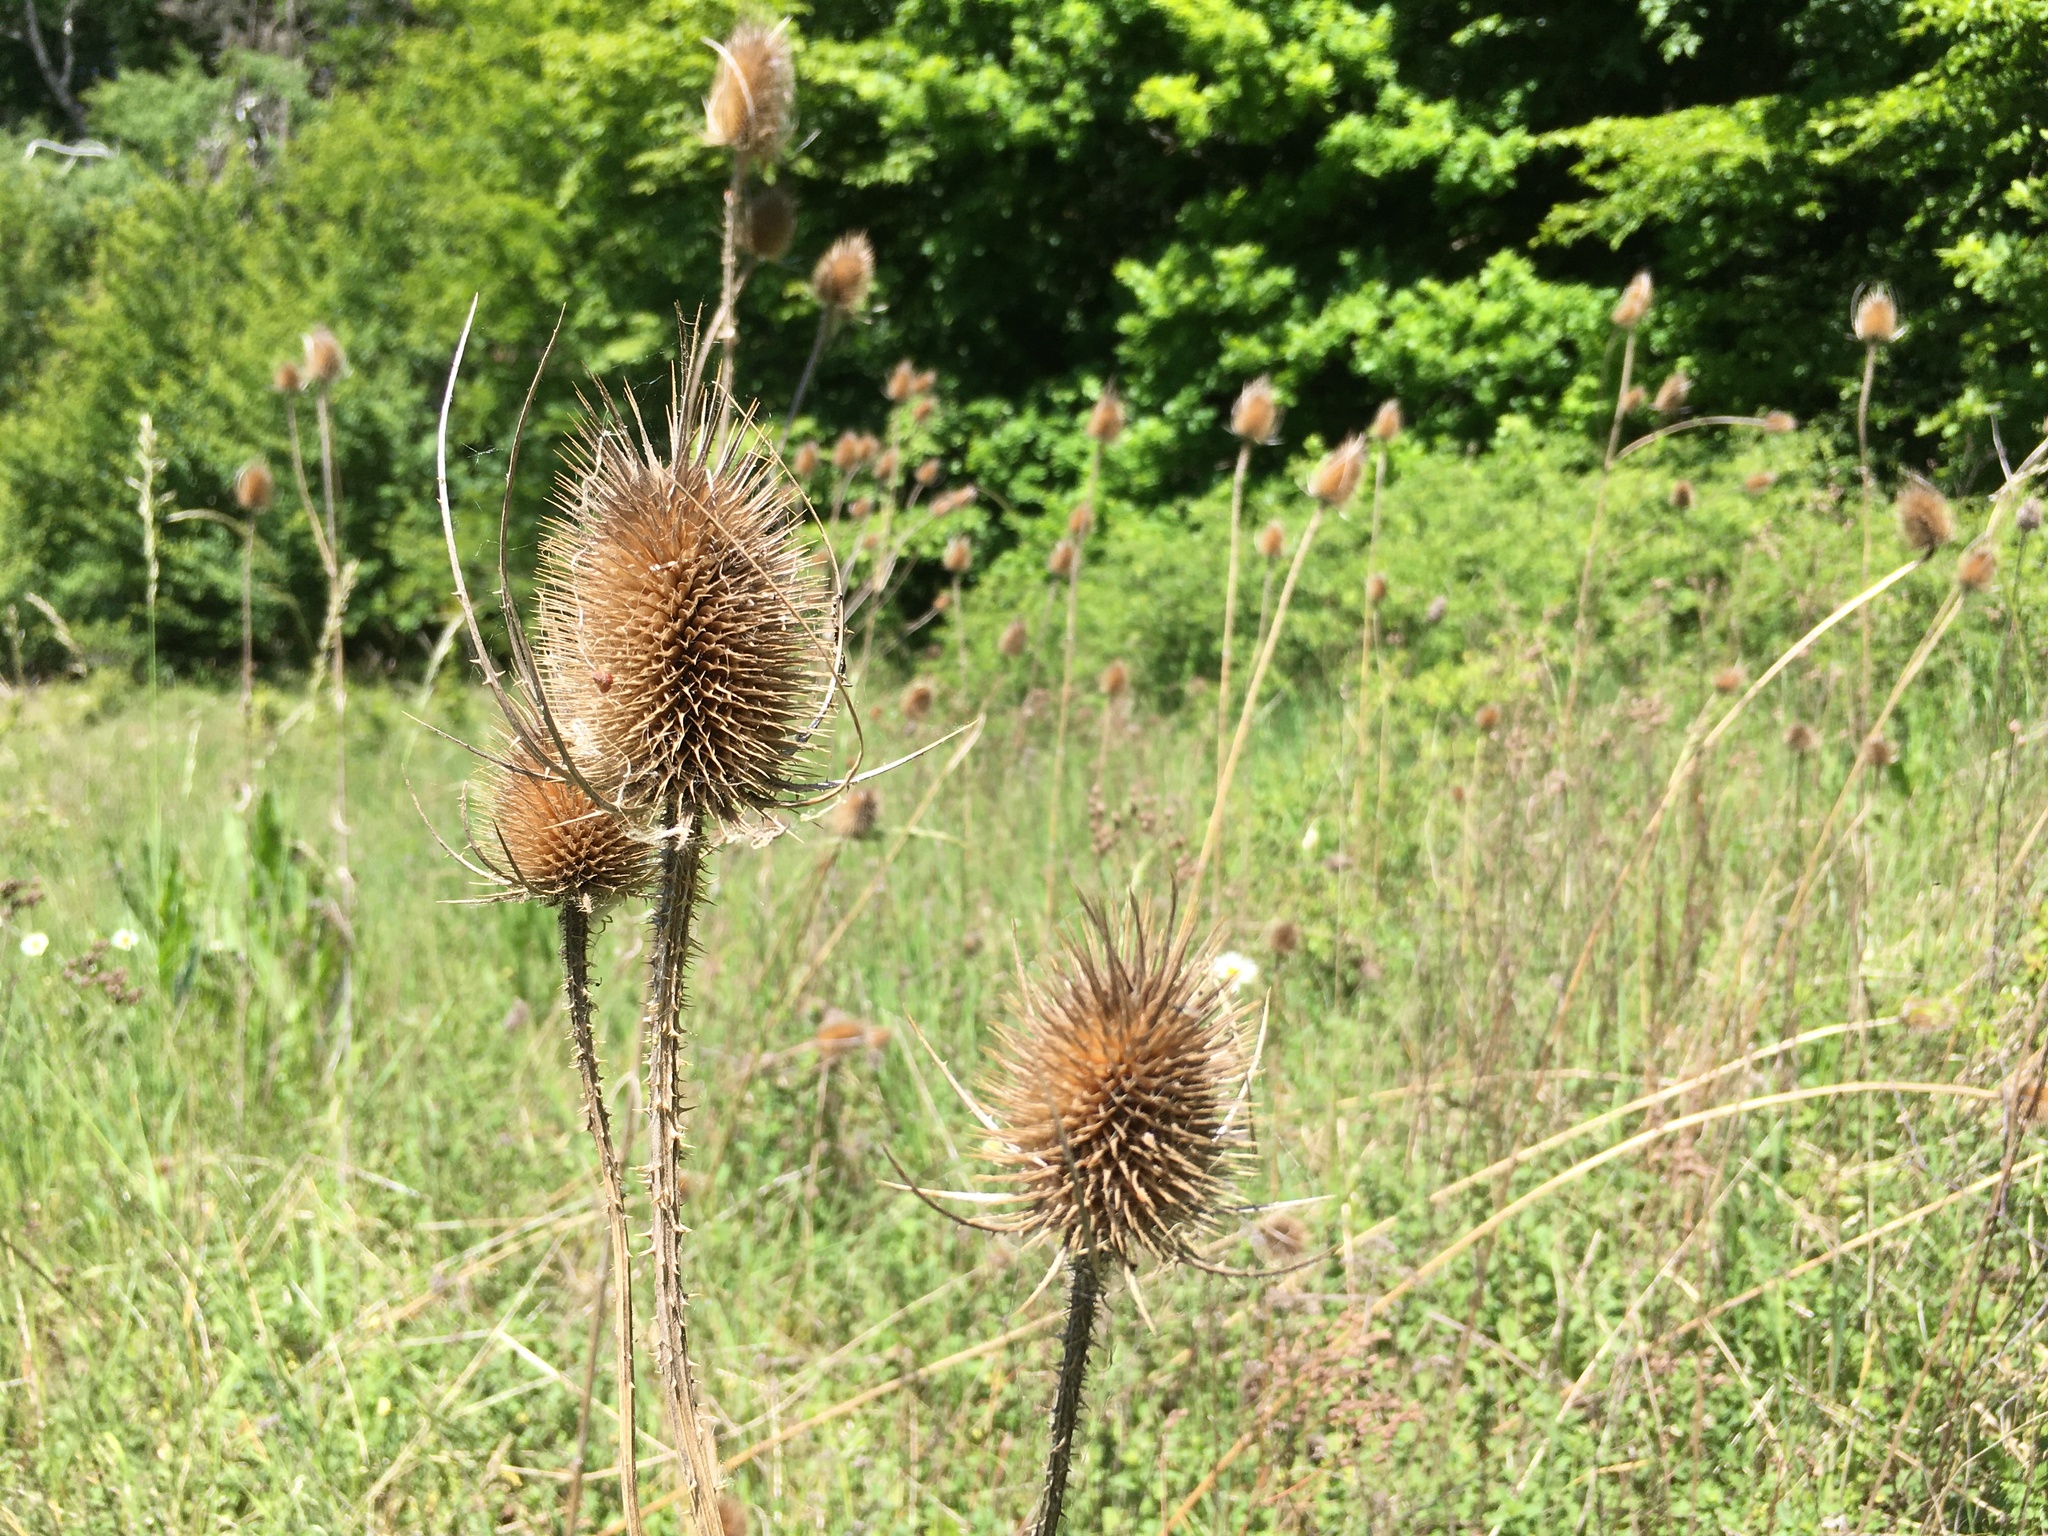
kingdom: Plantae
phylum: Tracheophyta
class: Magnoliopsida
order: Dipsacales
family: Caprifoliaceae
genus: Dipsacus
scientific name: Dipsacus fullonum
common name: Teasel
